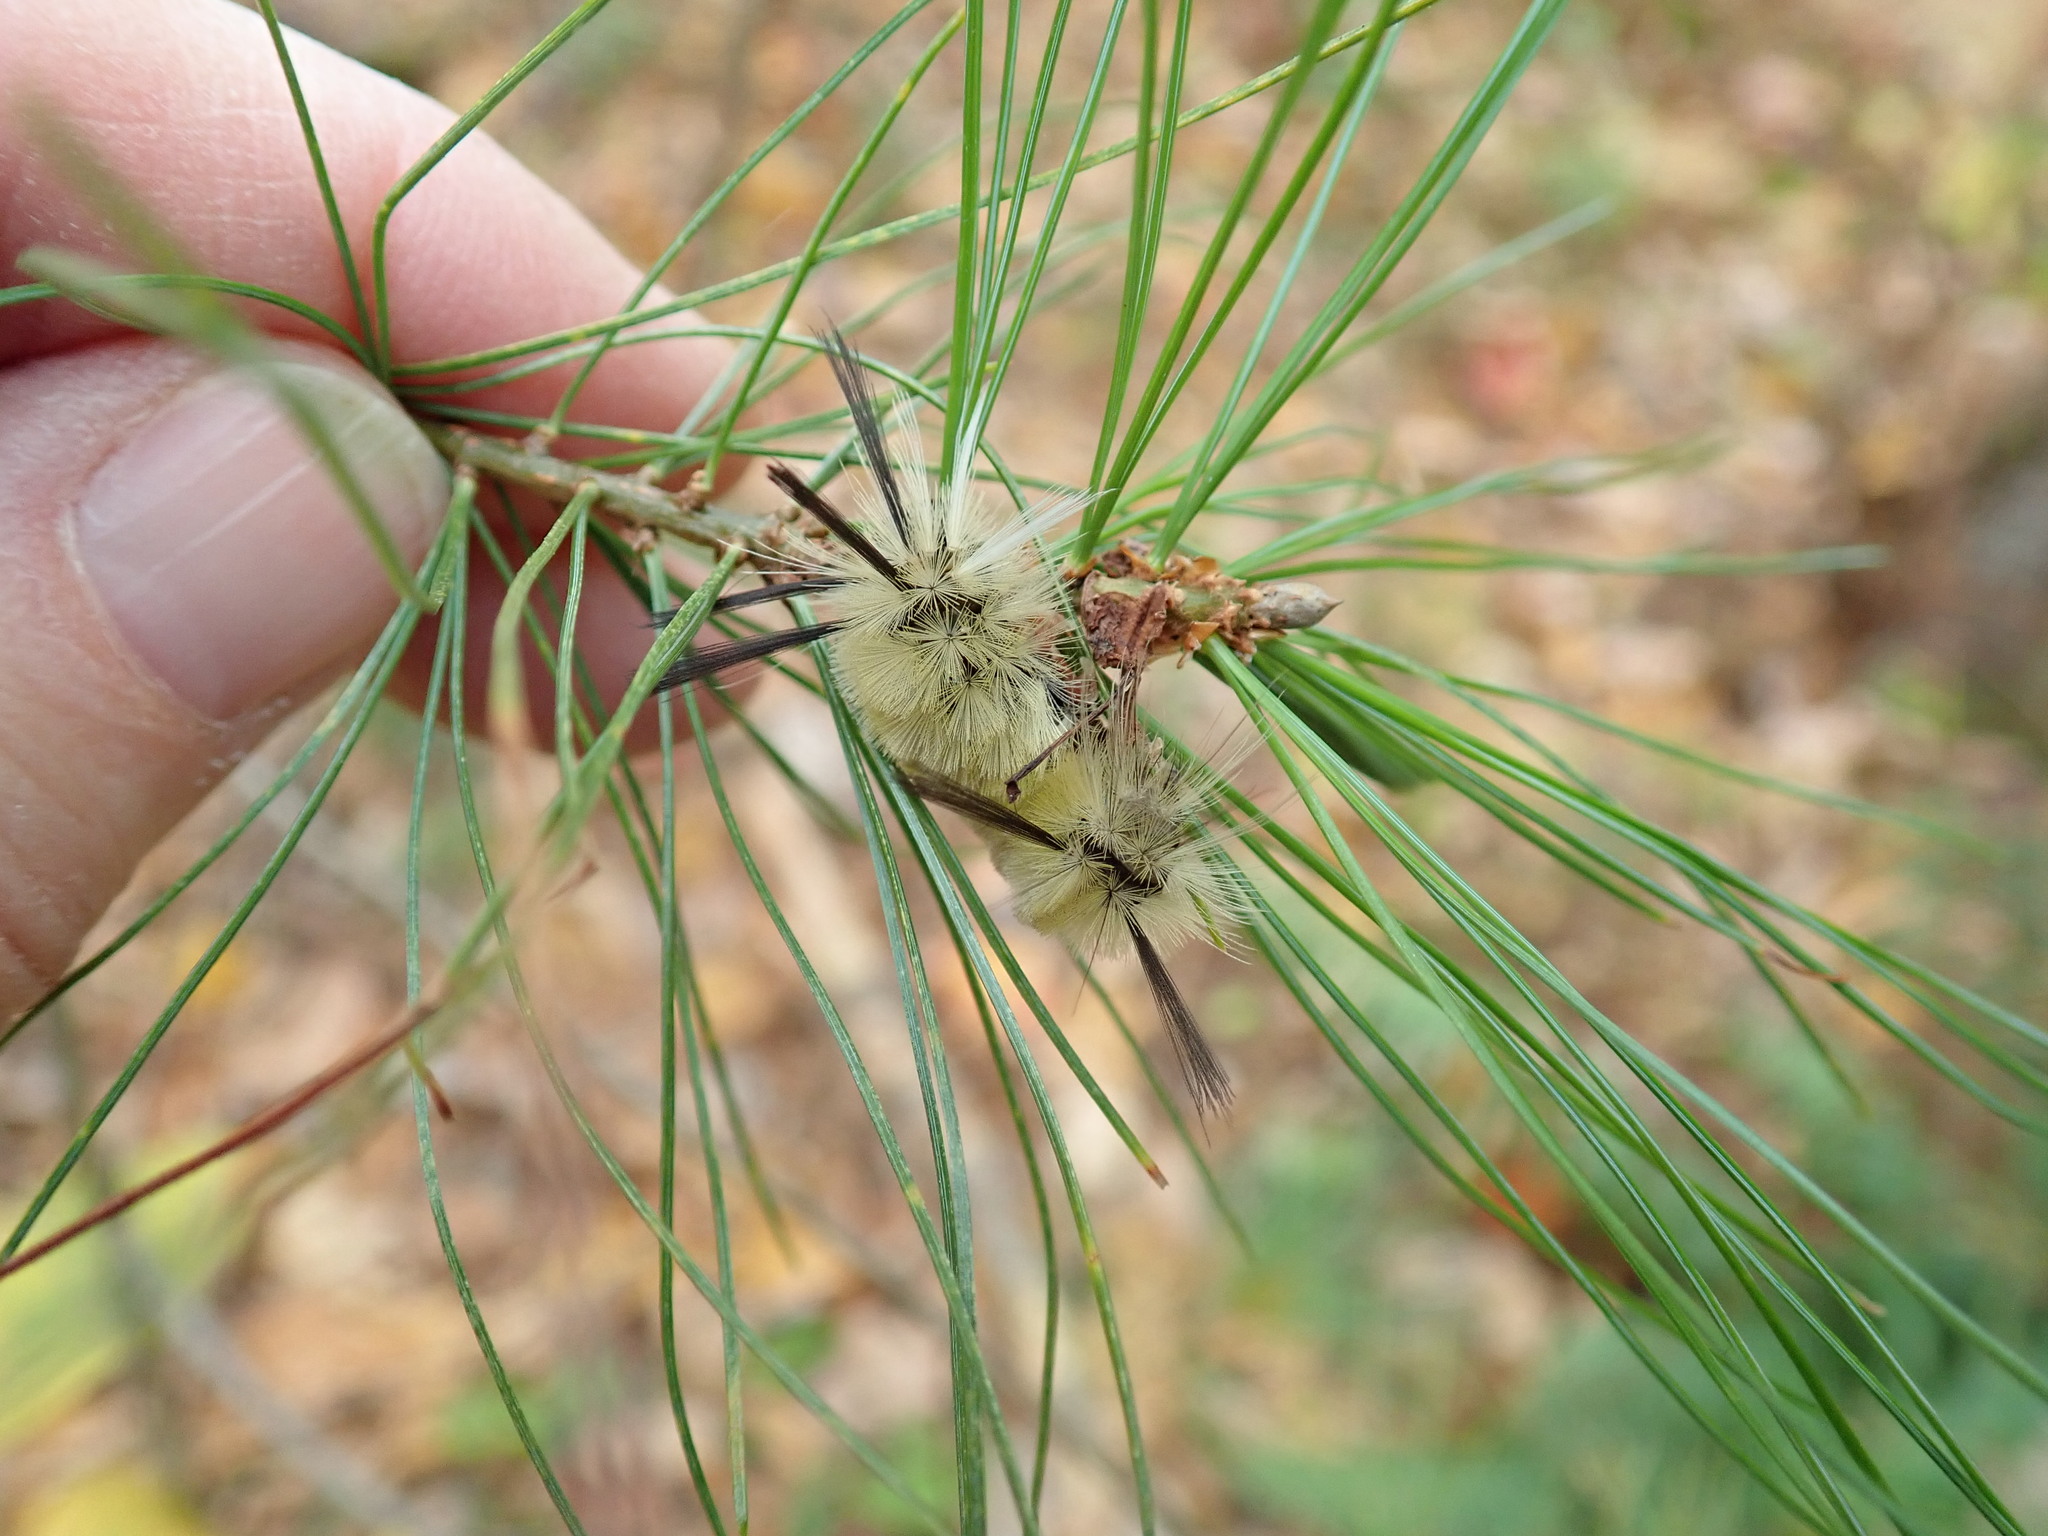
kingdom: Animalia
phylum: Arthropoda
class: Insecta
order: Lepidoptera
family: Erebidae
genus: Halysidota
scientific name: Halysidota tessellaris
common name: Banded tussock moth
